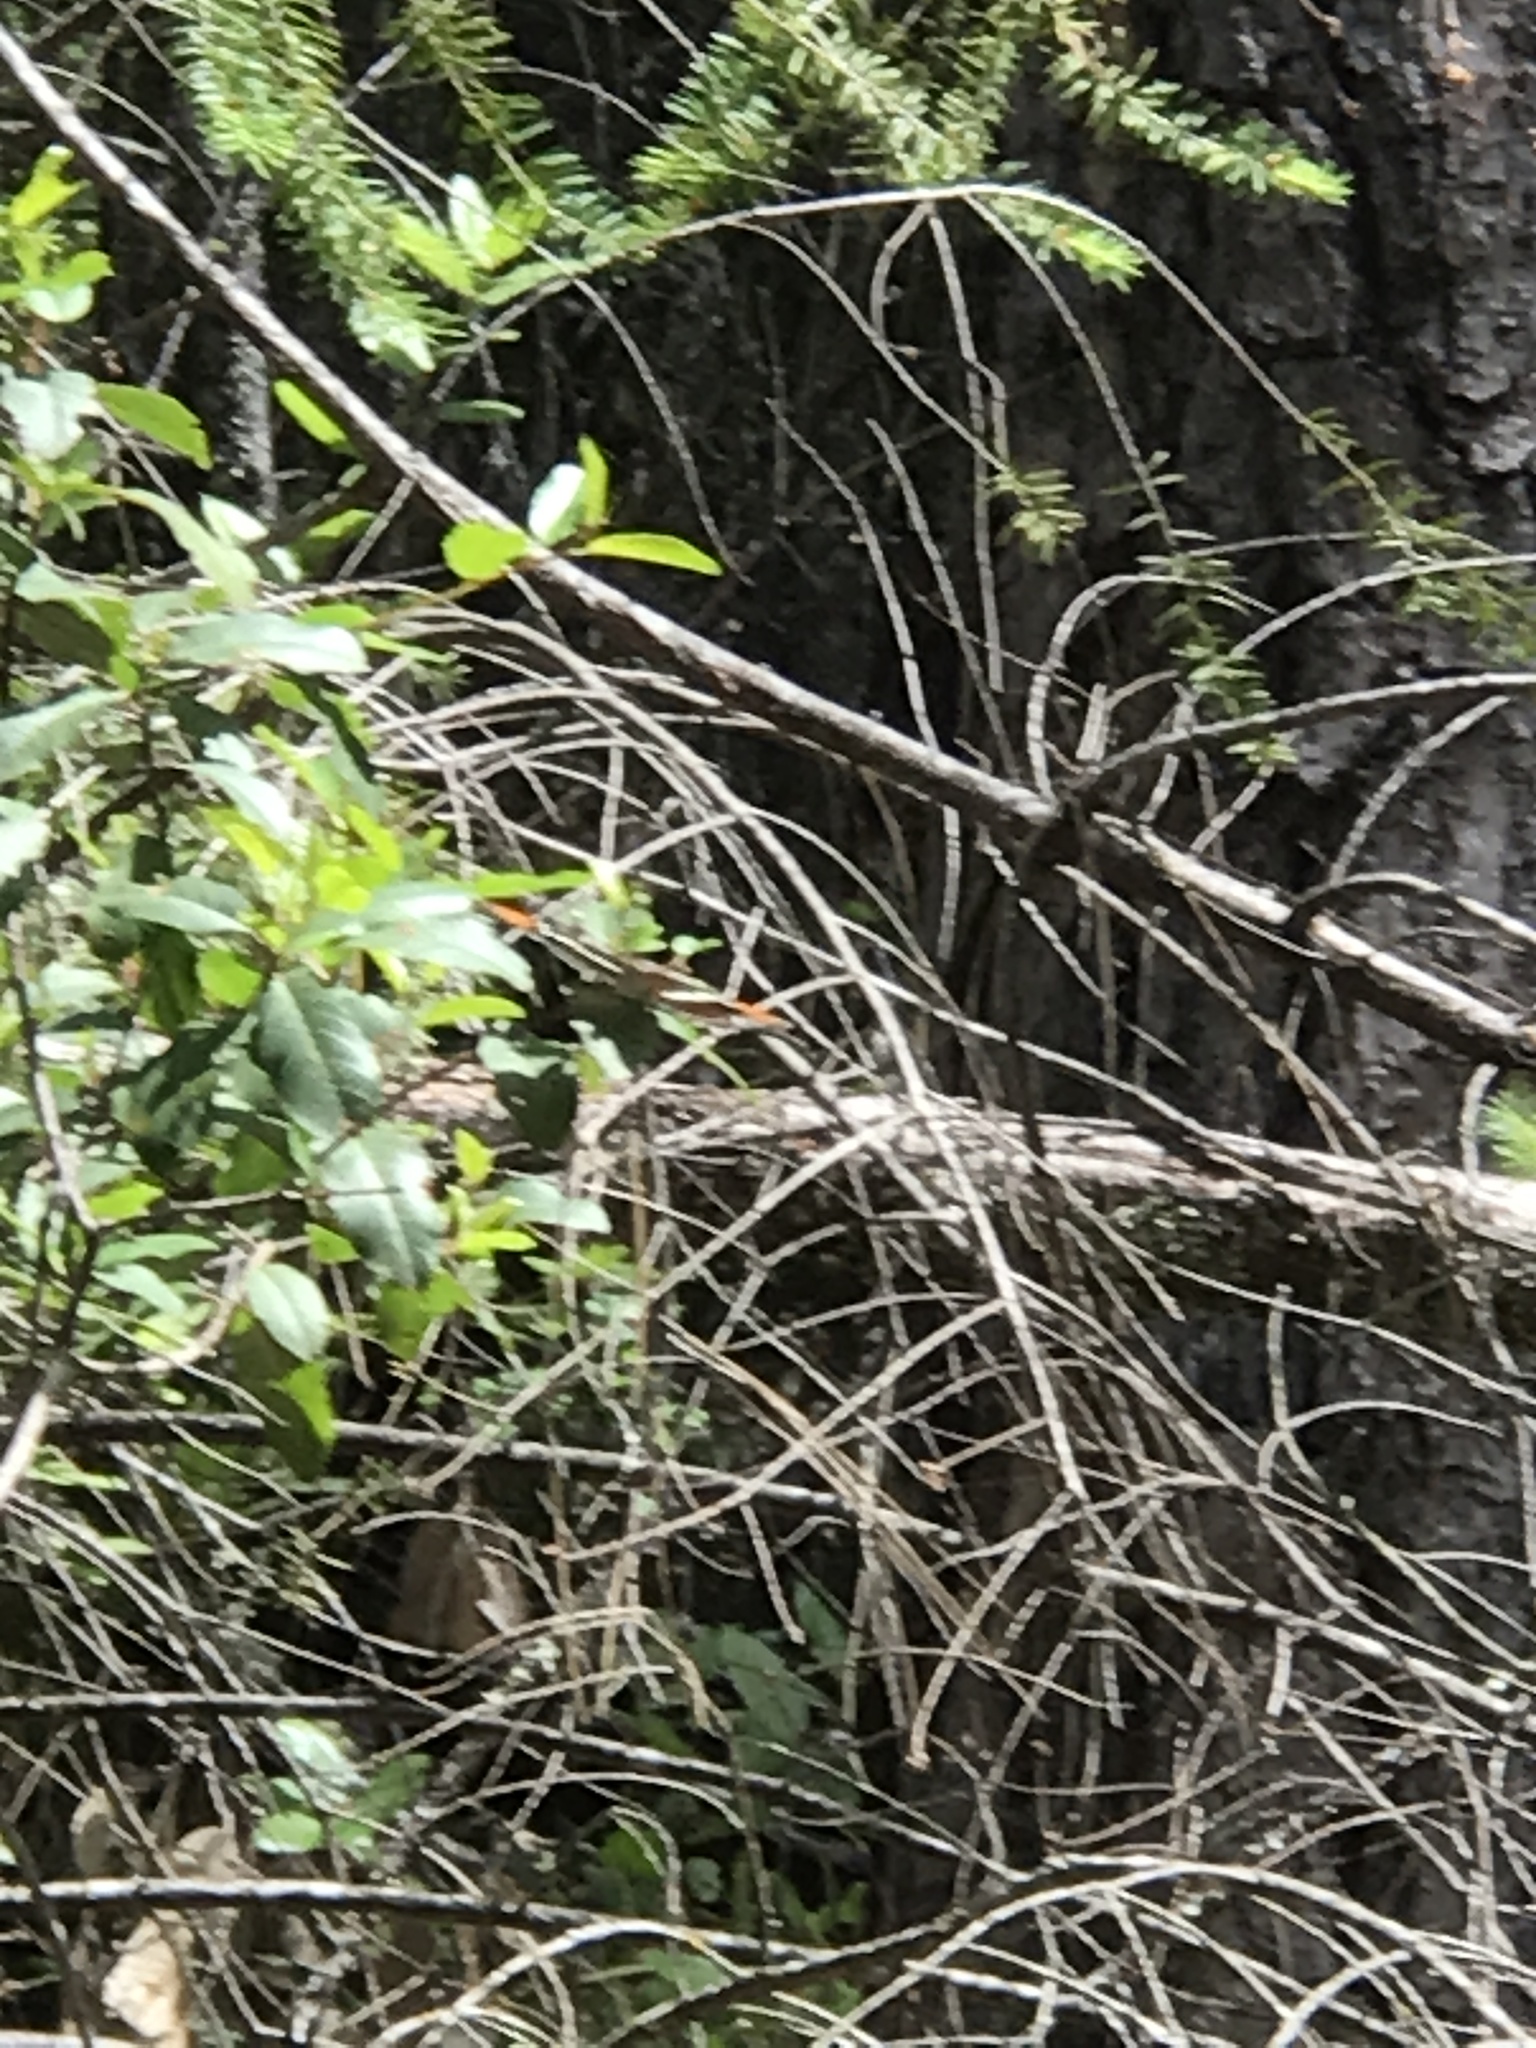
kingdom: Animalia
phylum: Arthropoda
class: Insecta
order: Lepidoptera
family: Nymphalidae
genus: Limenitis
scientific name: Limenitis lorquini
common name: Lorquin's admiral
